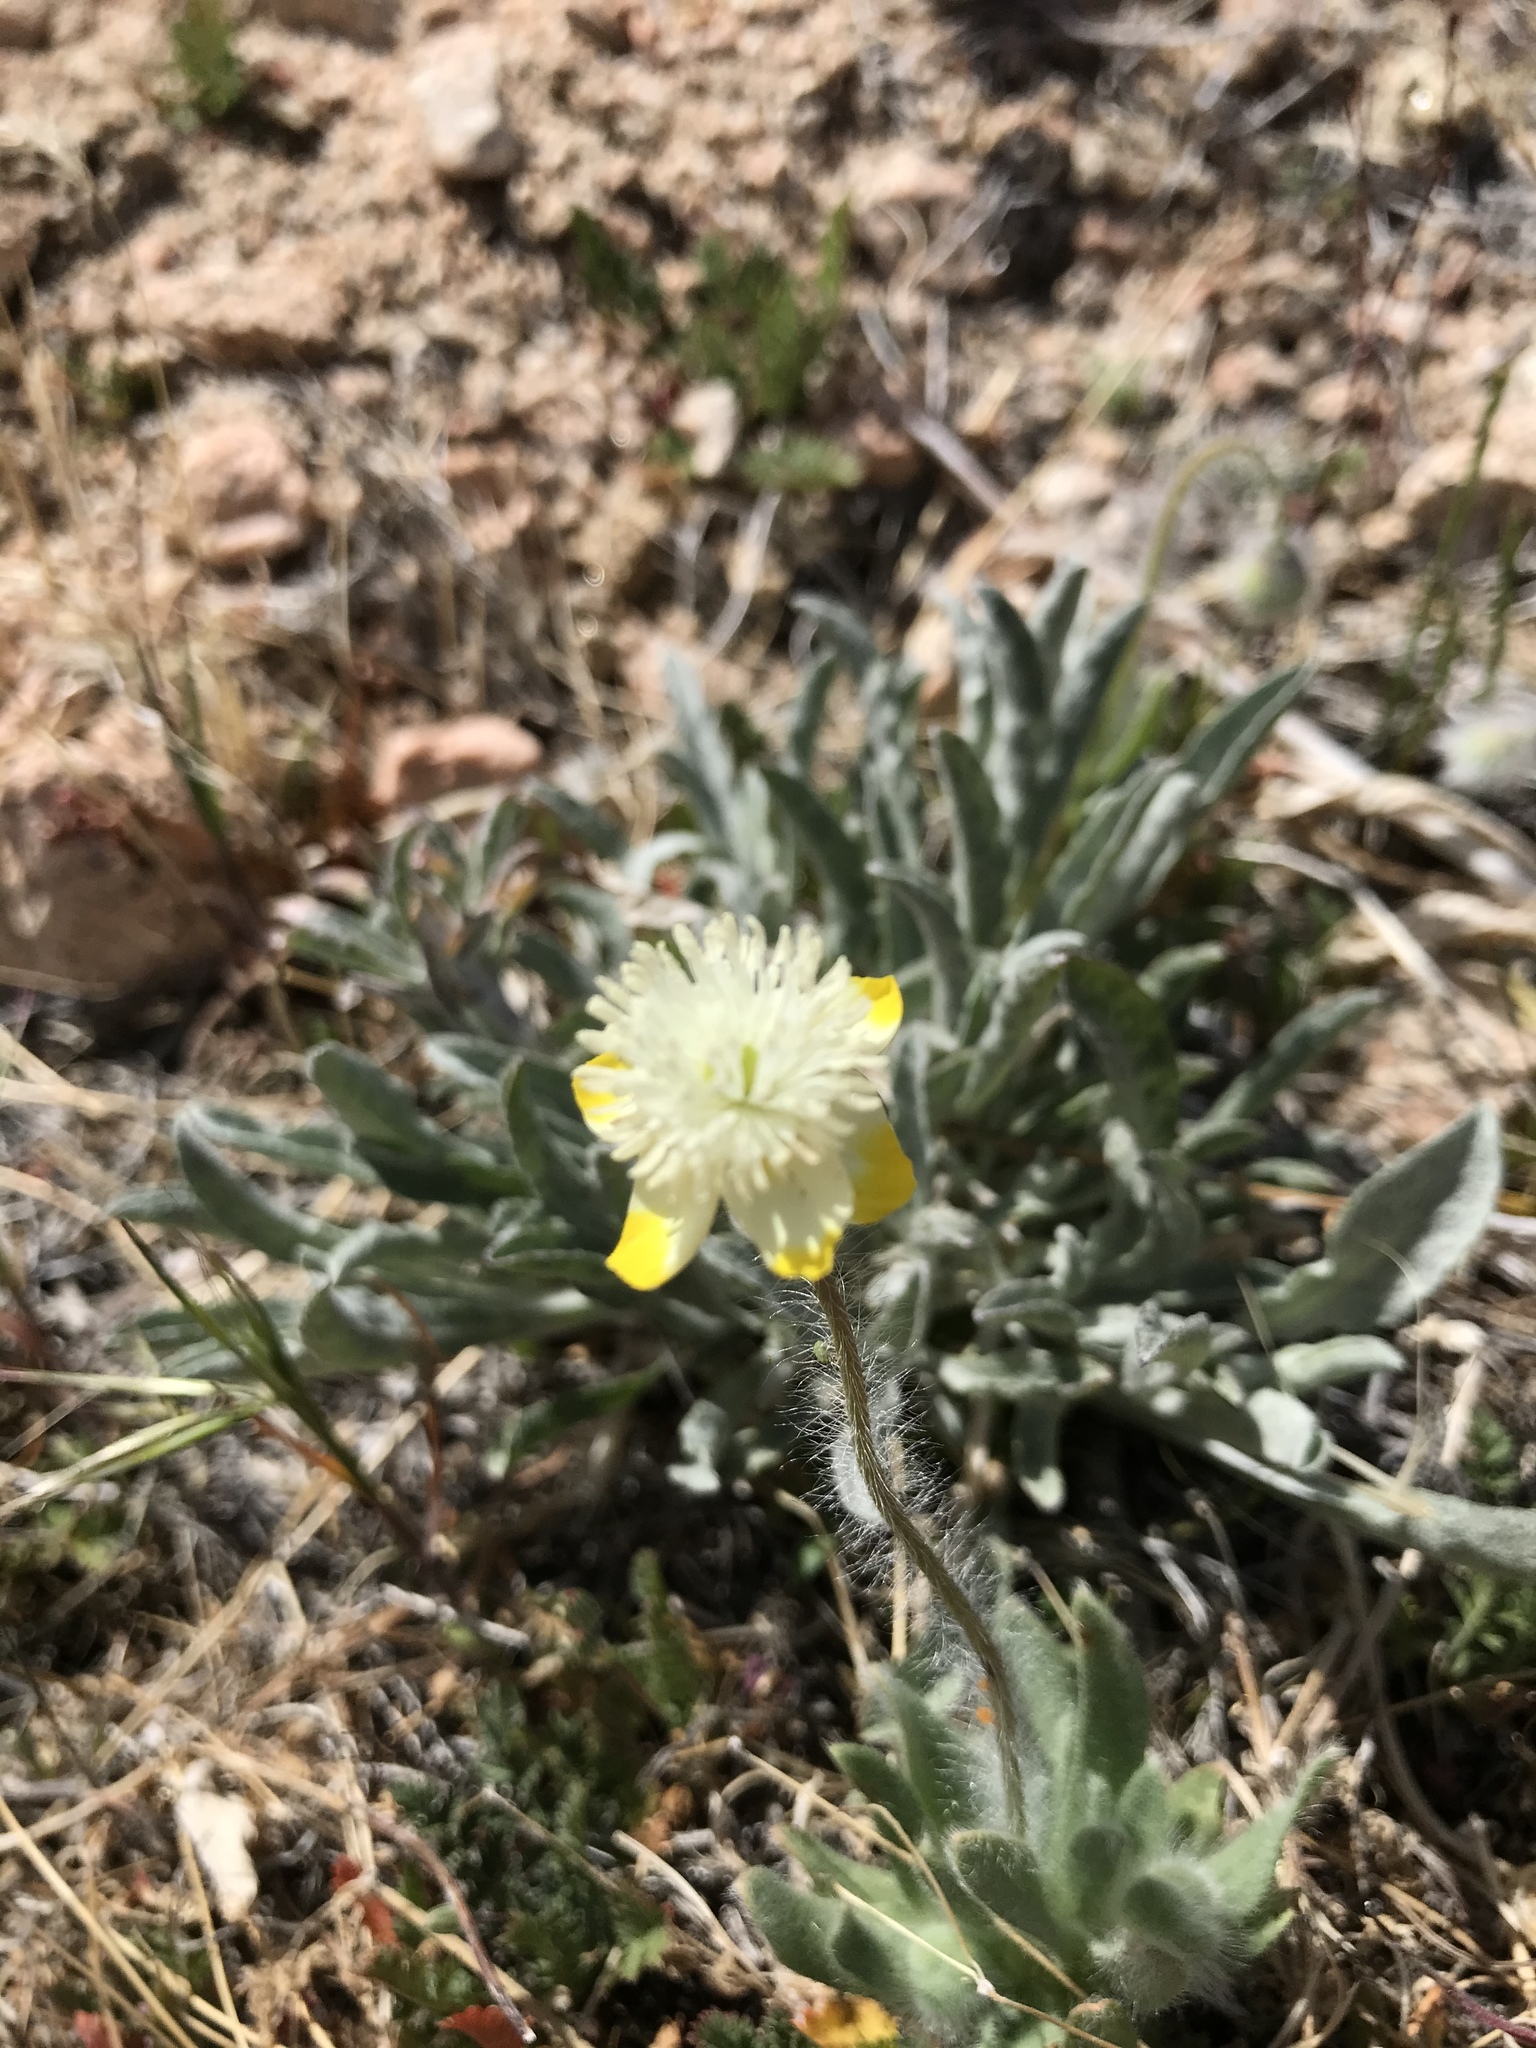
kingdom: Plantae
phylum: Tracheophyta
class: Magnoliopsida
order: Ranunculales
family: Papaveraceae
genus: Platystemon
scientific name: Platystemon californicus
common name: Cream-cups
